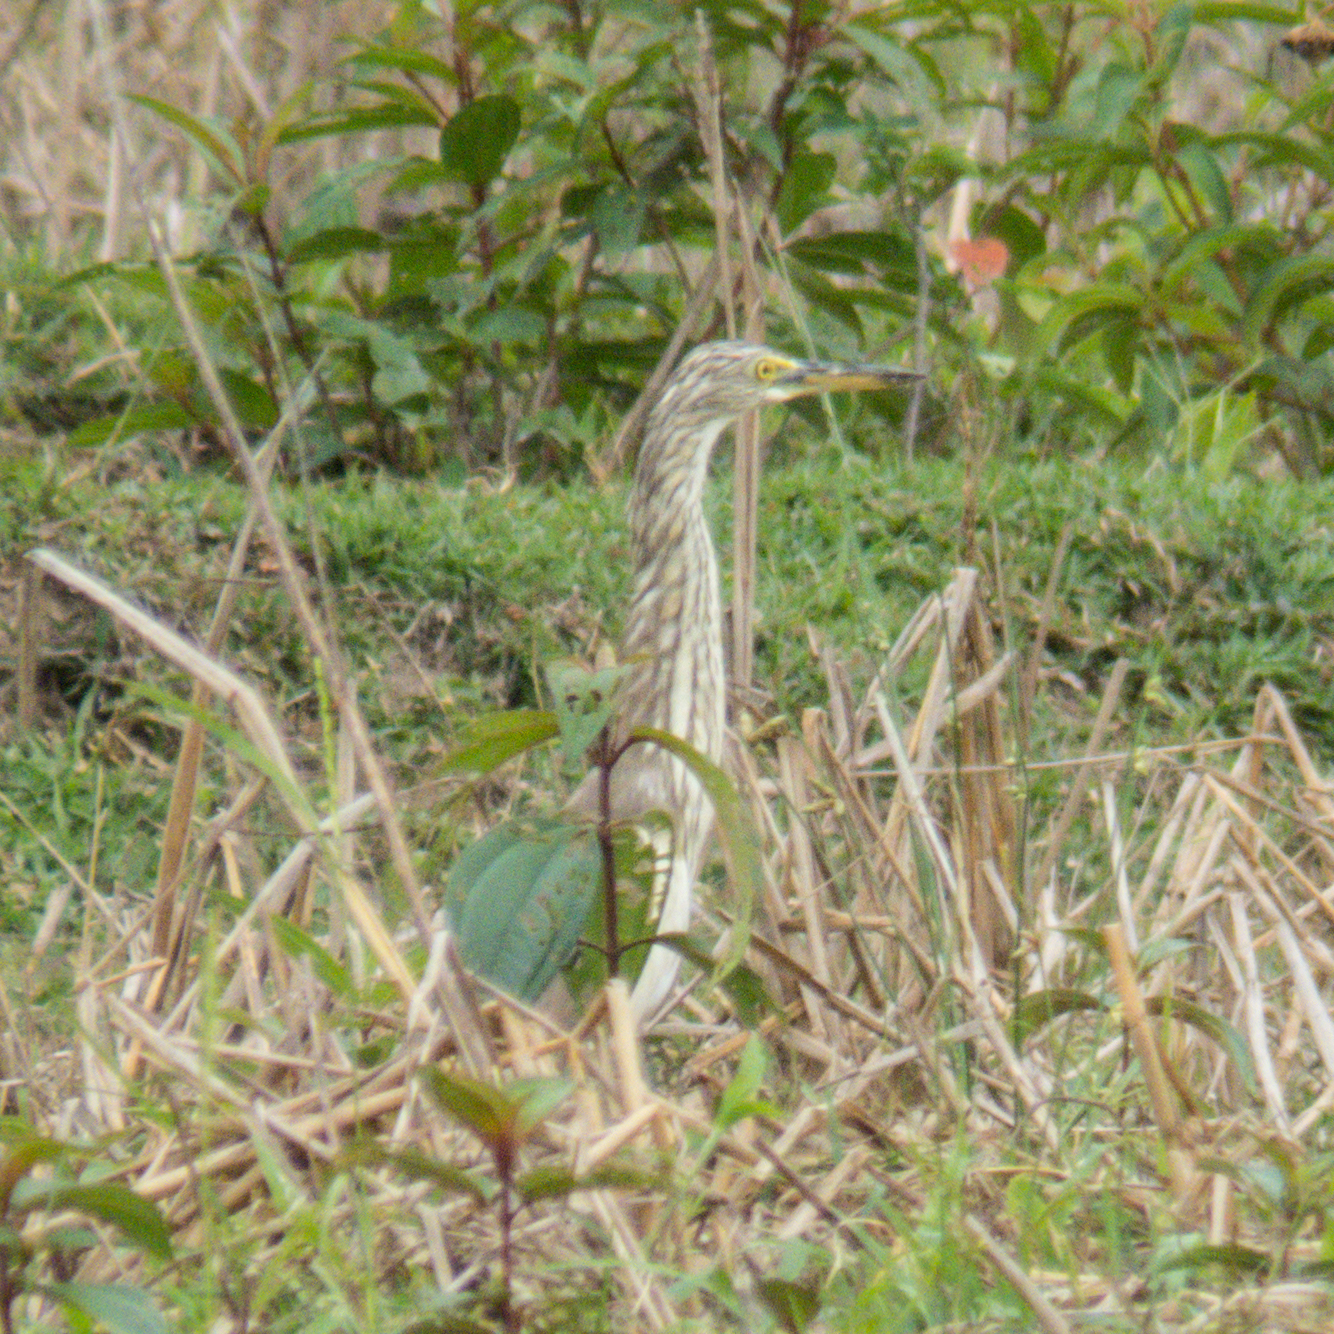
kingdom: Animalia
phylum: Chordata
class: Aves
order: Pelecaniformes
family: Ardeidae
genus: Ardeola
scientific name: Ardeola
